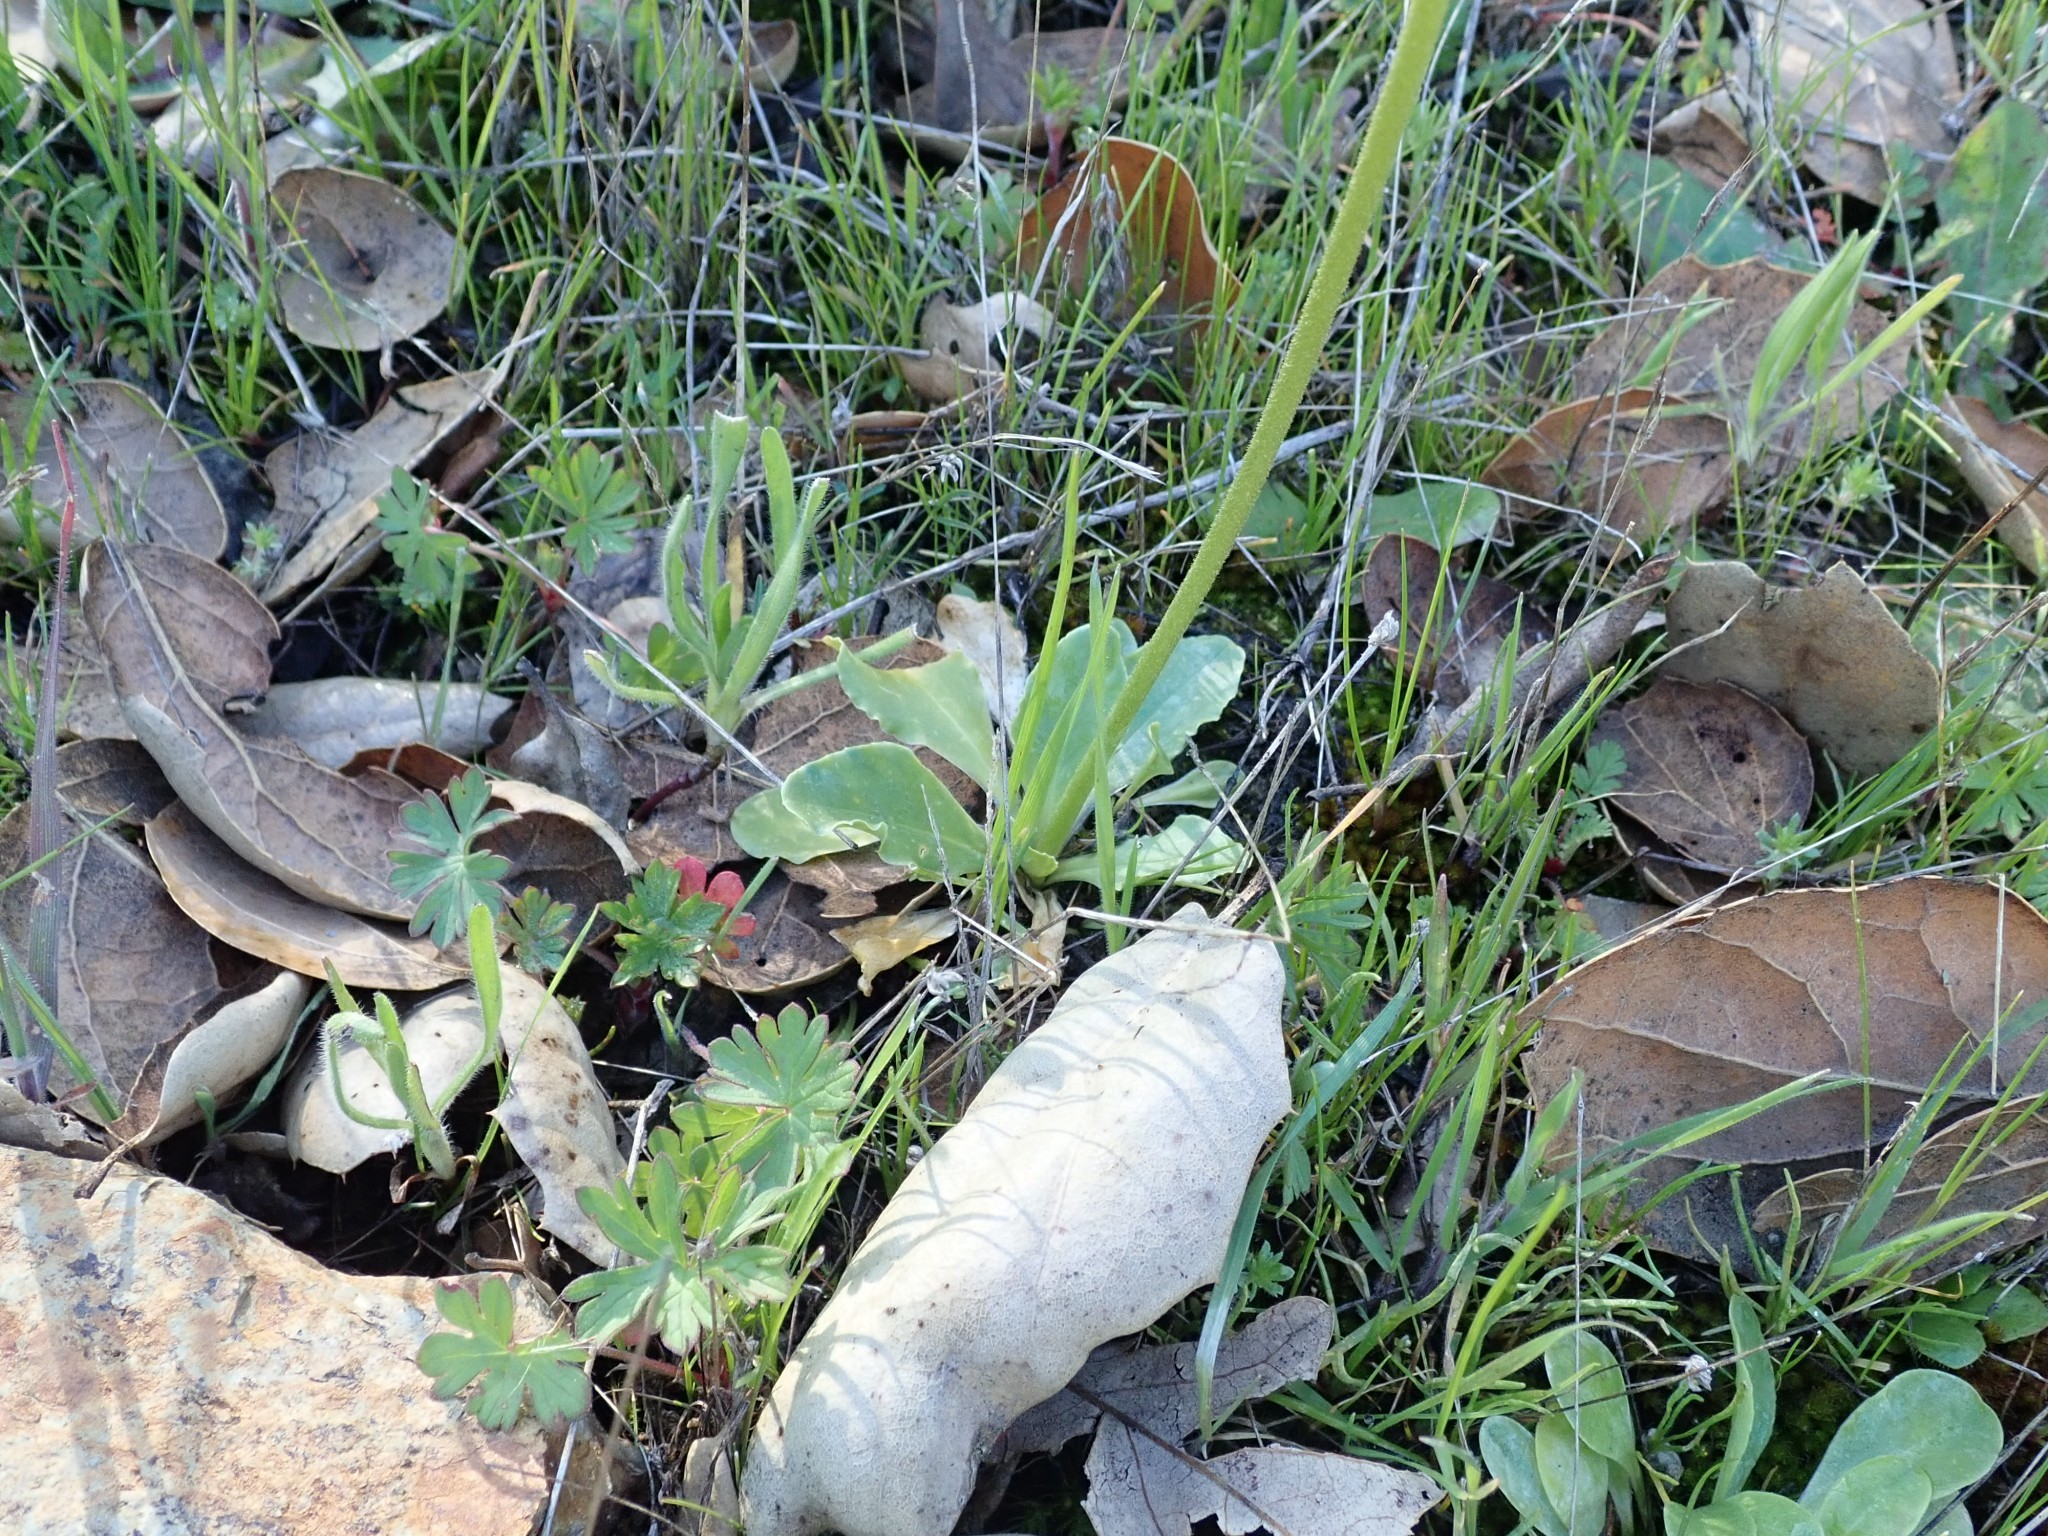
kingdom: Plantae
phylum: Tracheophyta
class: Magnoliopsida
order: Ericales
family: Primulaceae
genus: Dodecatheon
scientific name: Dodecatheon clevelandii
